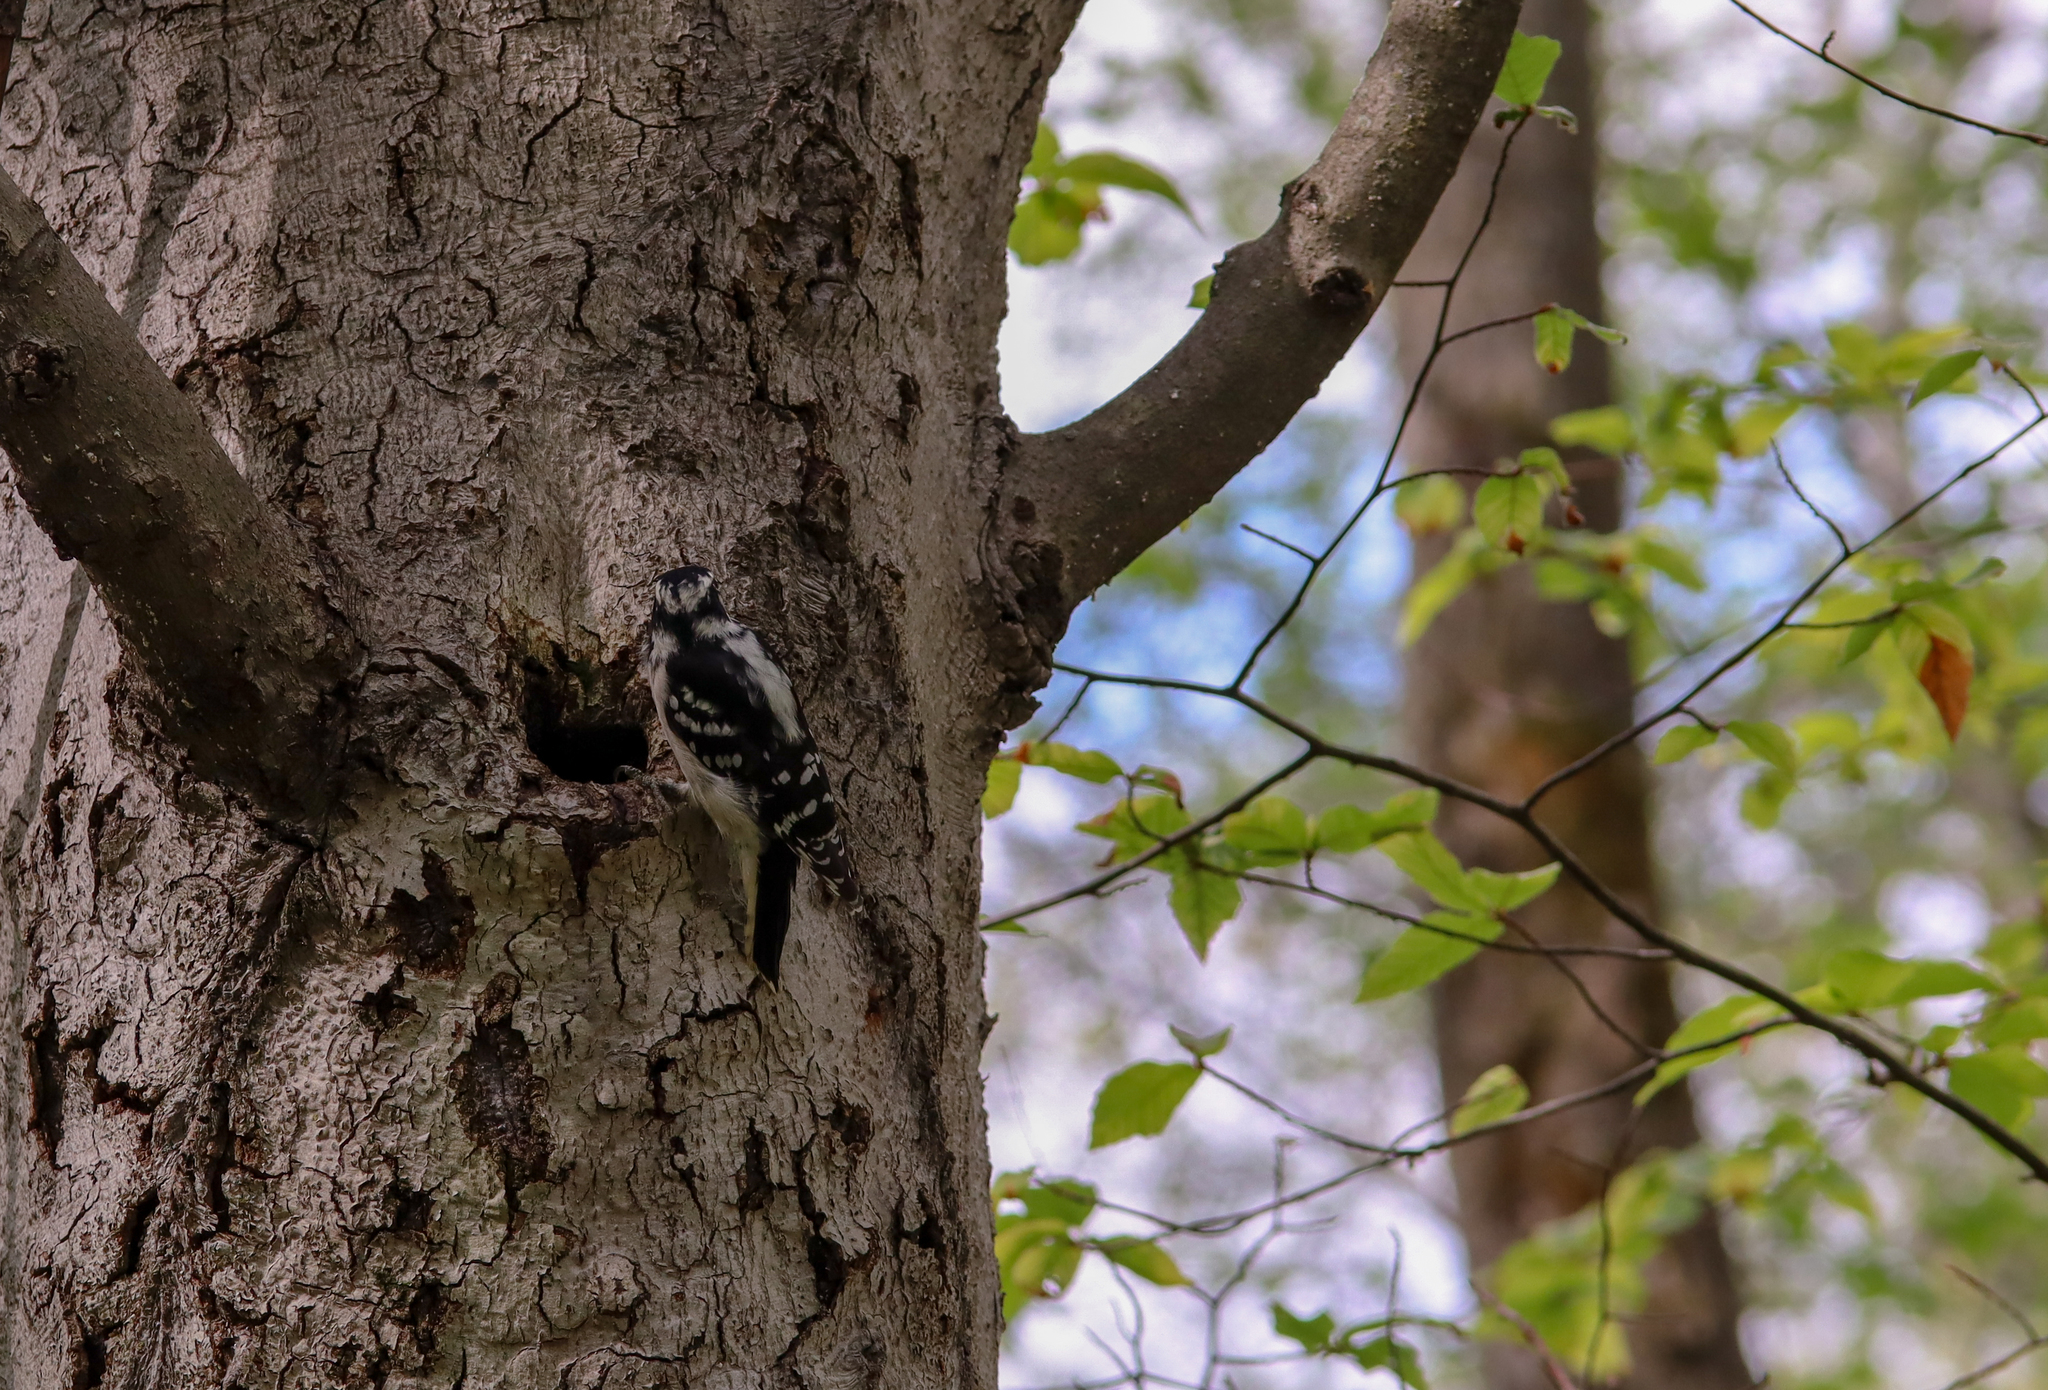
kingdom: Animalia
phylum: Chordata
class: Aves
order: Piciformes
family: Picidae
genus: Dryobates
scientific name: Dryobates pubescens
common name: Downy woodpecker
